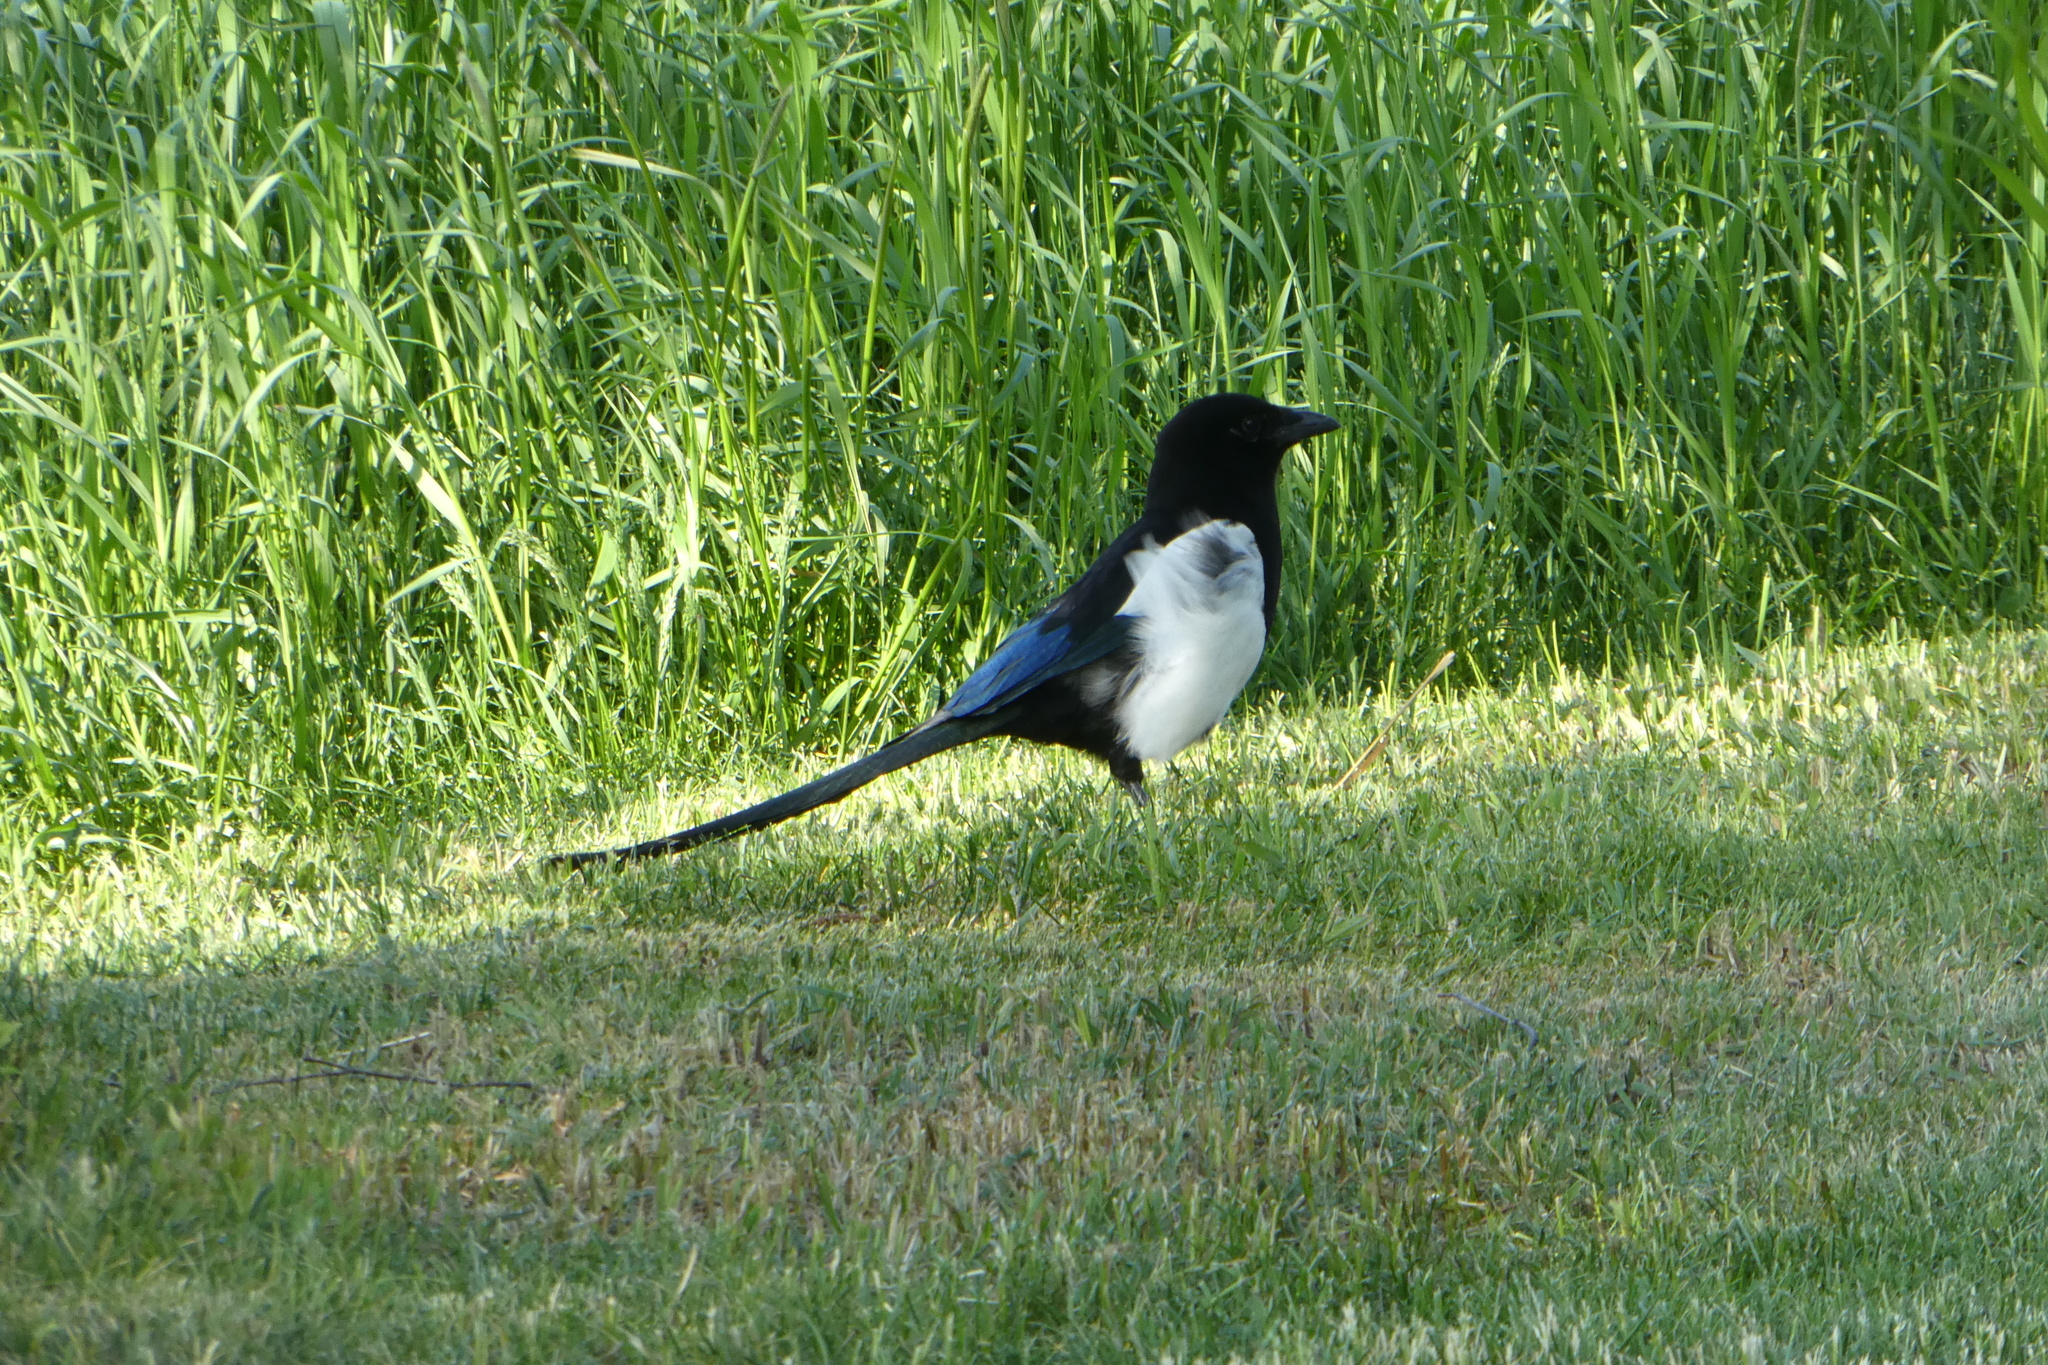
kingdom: Animalia
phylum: Chordata
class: Aves
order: Passeriformes
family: Corvidae
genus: Pica
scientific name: Pica pica
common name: Eurasian magpie
